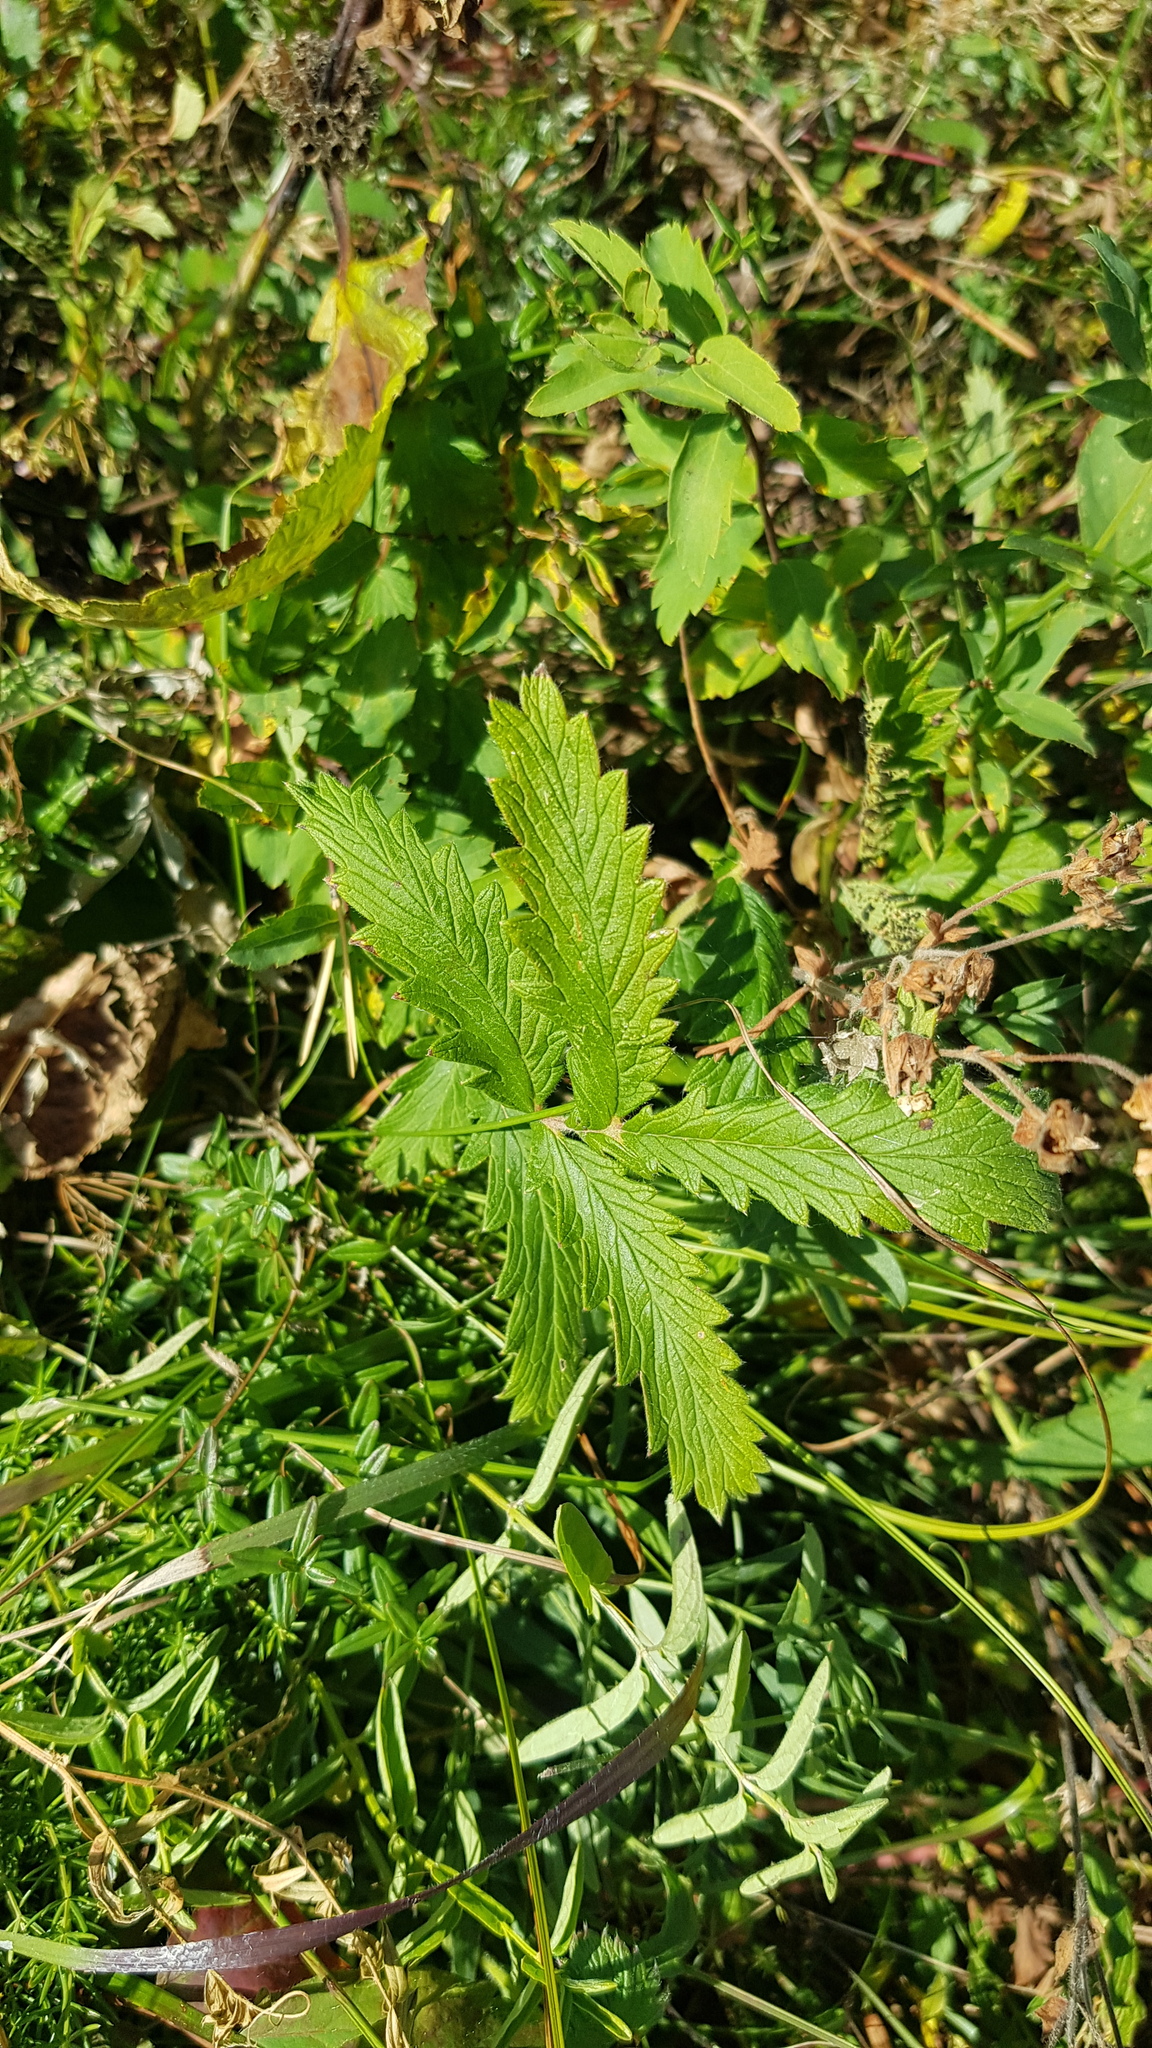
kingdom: Plantae
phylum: Tracheophyta
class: Magnoliopsida
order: Rosales
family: Rosaceae
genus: Potentilla
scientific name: Potentilla longifolia
